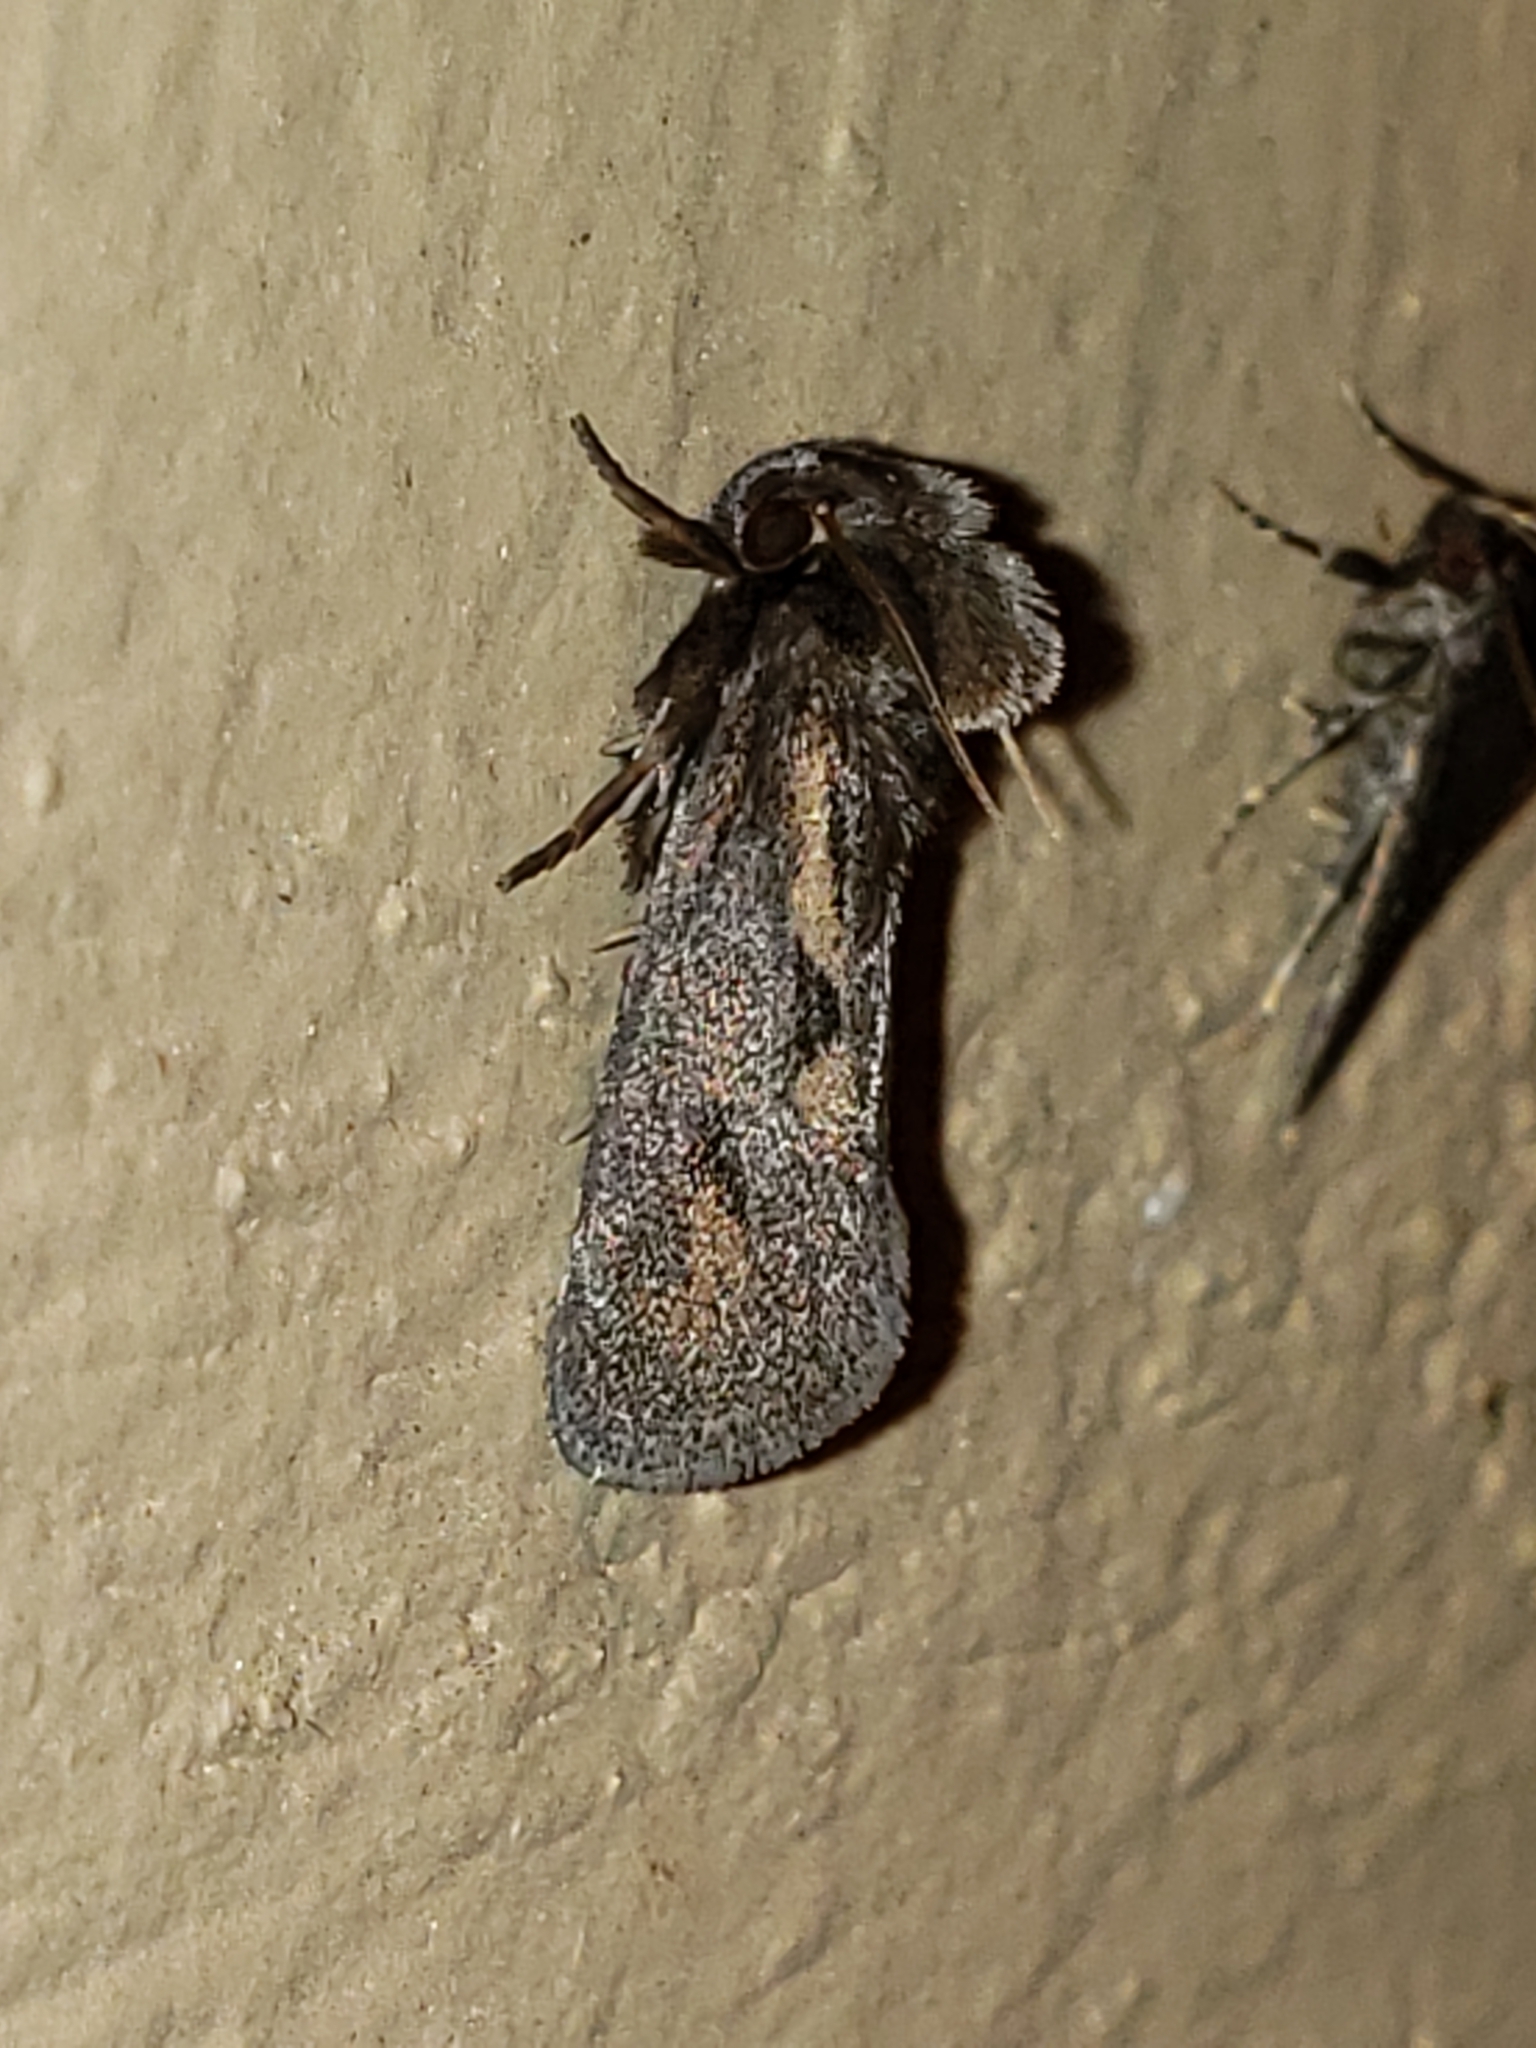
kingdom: Animalia
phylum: Arthropoda
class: Insecta
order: Lepidoptera
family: Tineidae
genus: Acrolophus
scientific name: Acrolophus popeanella
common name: Clemens' grass tubeworm moth
